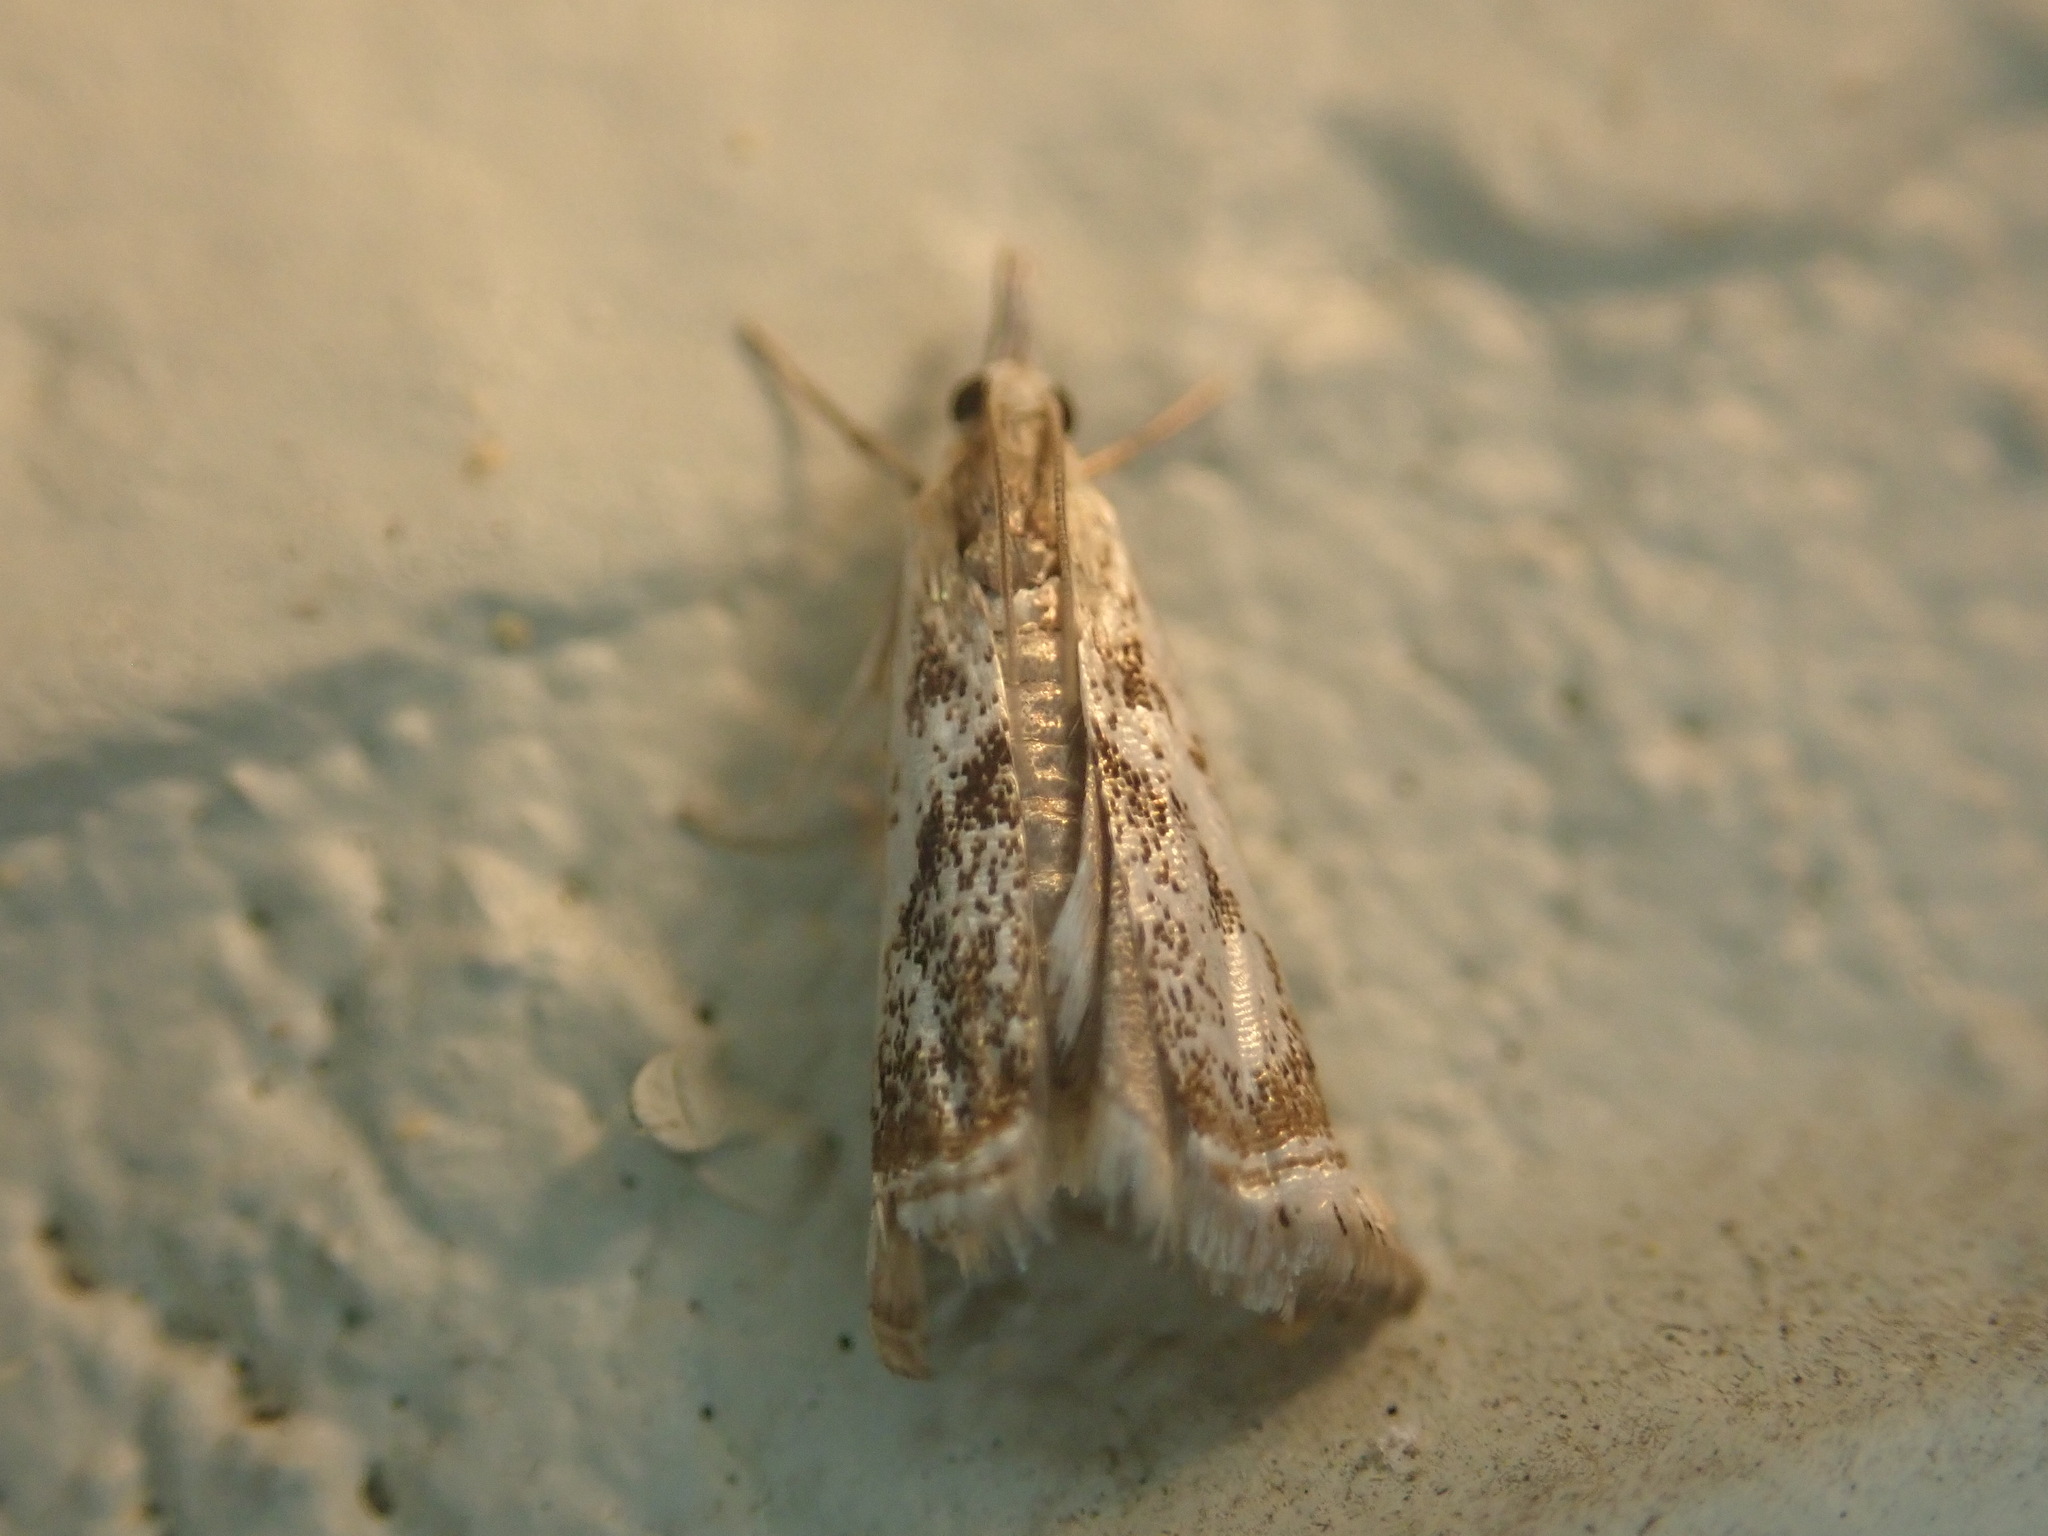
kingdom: Animalia
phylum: Arthropoda
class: Insecta
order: Lepidoptera
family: Crambidae
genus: Microcrambus
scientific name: Microcrambus elegans
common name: Elegant grass-veneer
